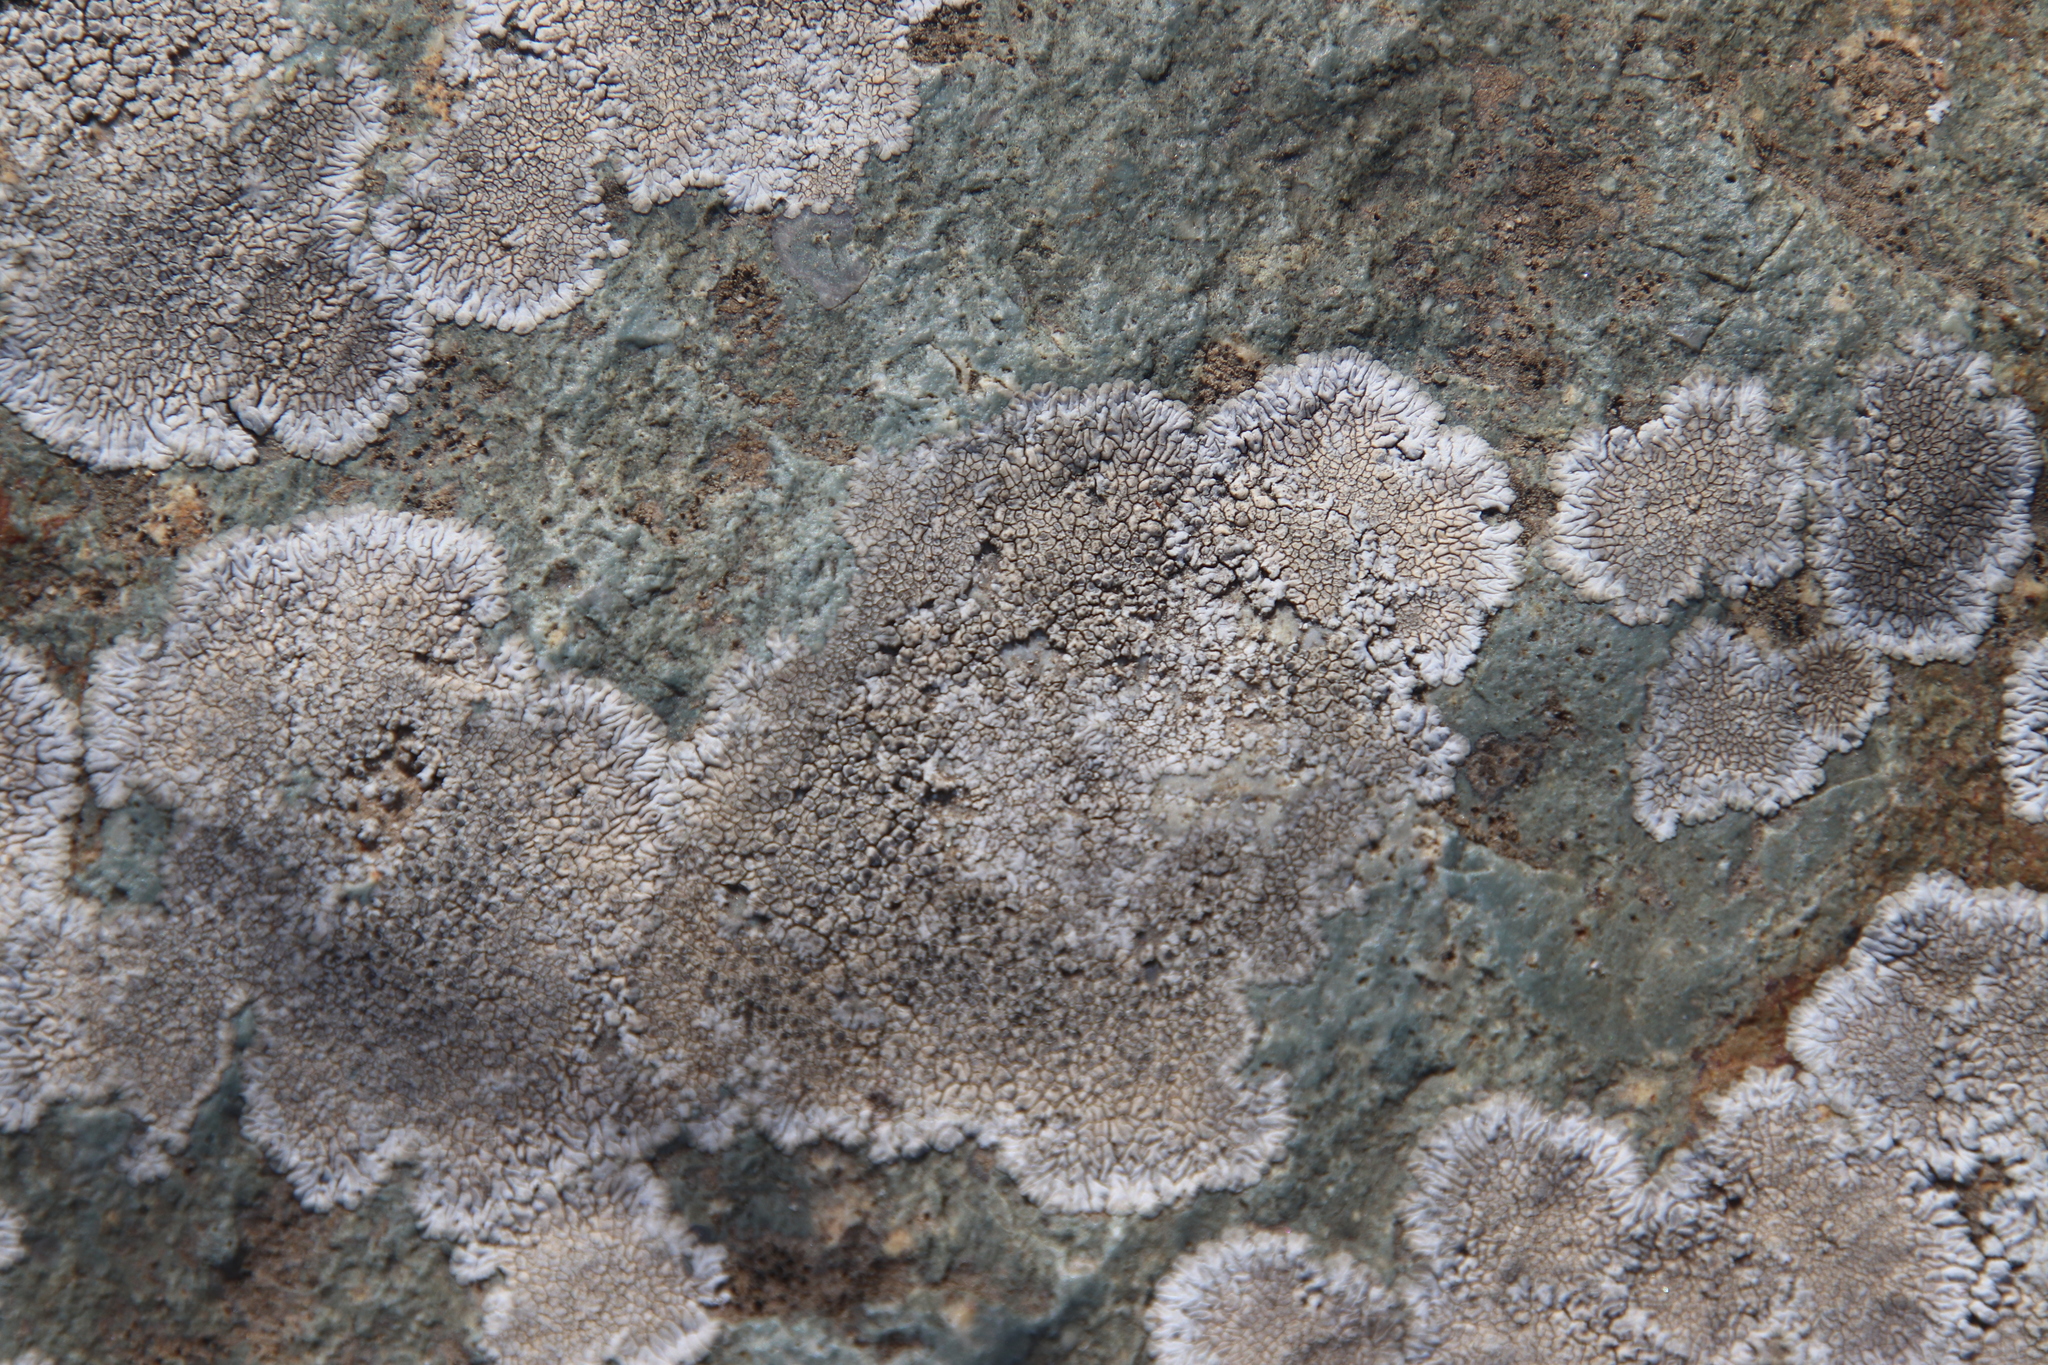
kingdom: Fungi
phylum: Ascomycota
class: Lecanoromycetes
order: Caliciales
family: Caliciaceae
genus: Dimelaena
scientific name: Dimelaena radiata
